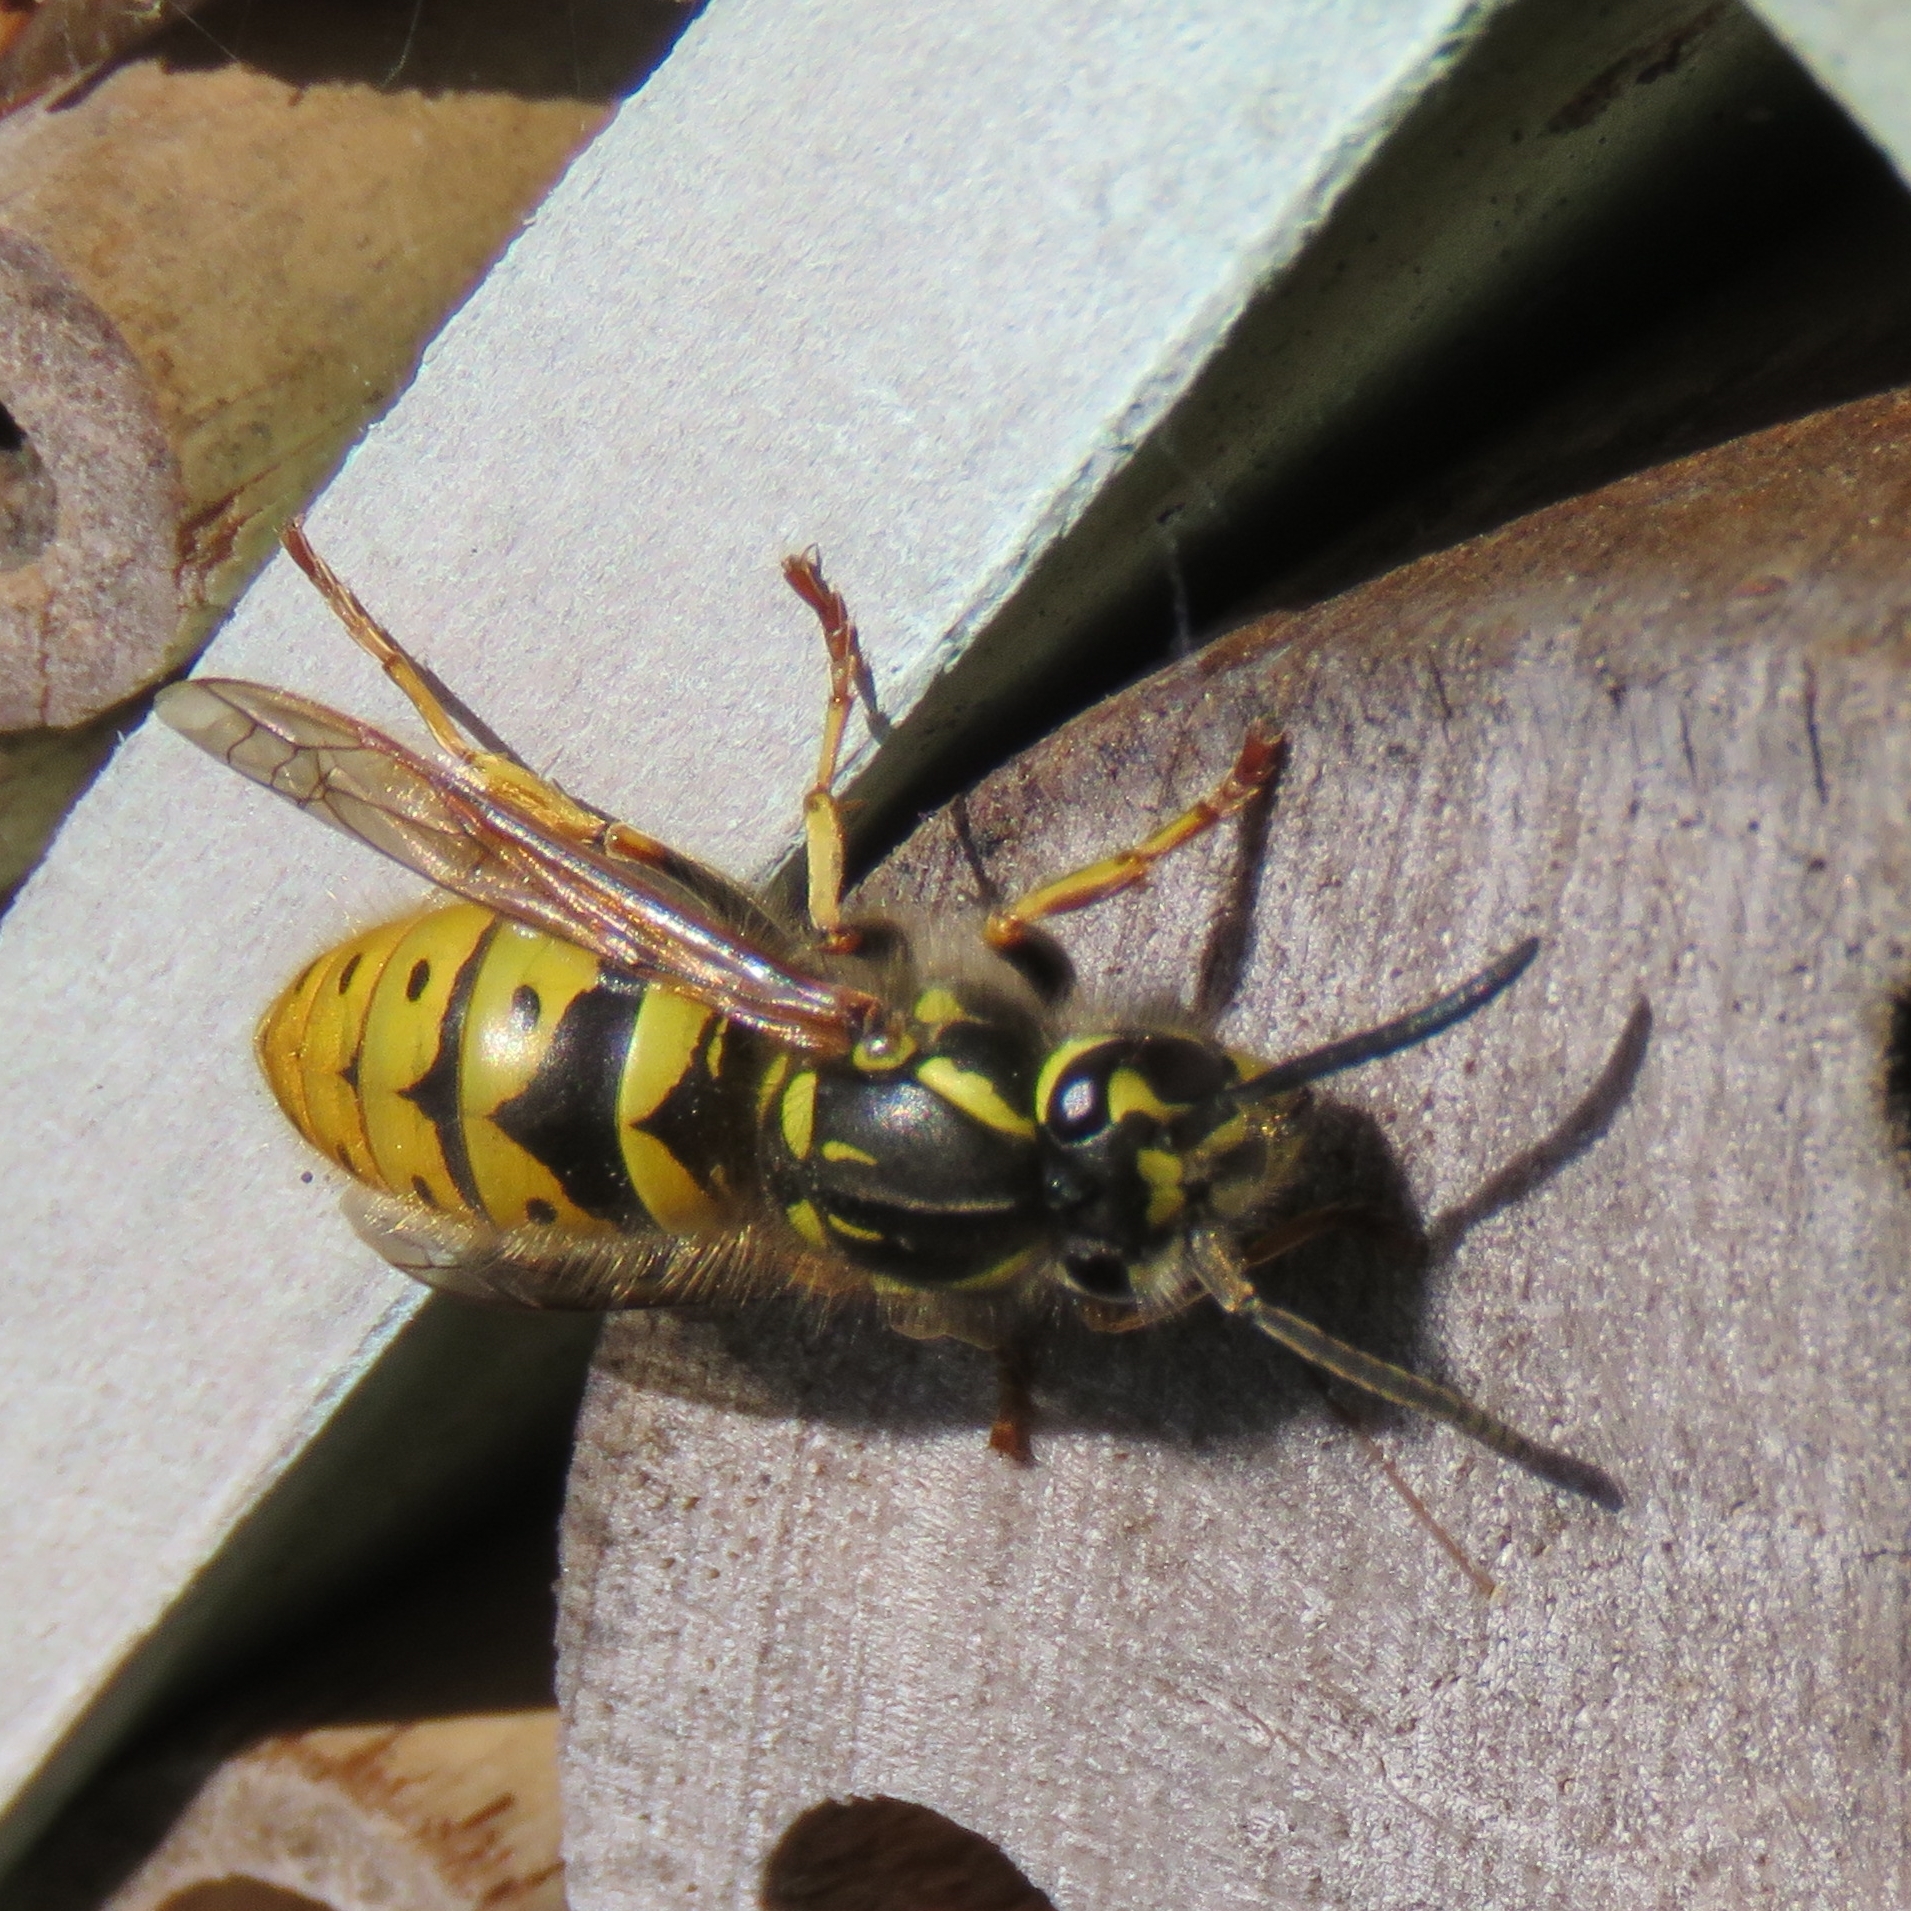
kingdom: Animalia
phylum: Arthropoda
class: Insecta
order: Hymenoptera
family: Vespidae
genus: Vespula
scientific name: Vespula vulgaris
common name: Common wasp
